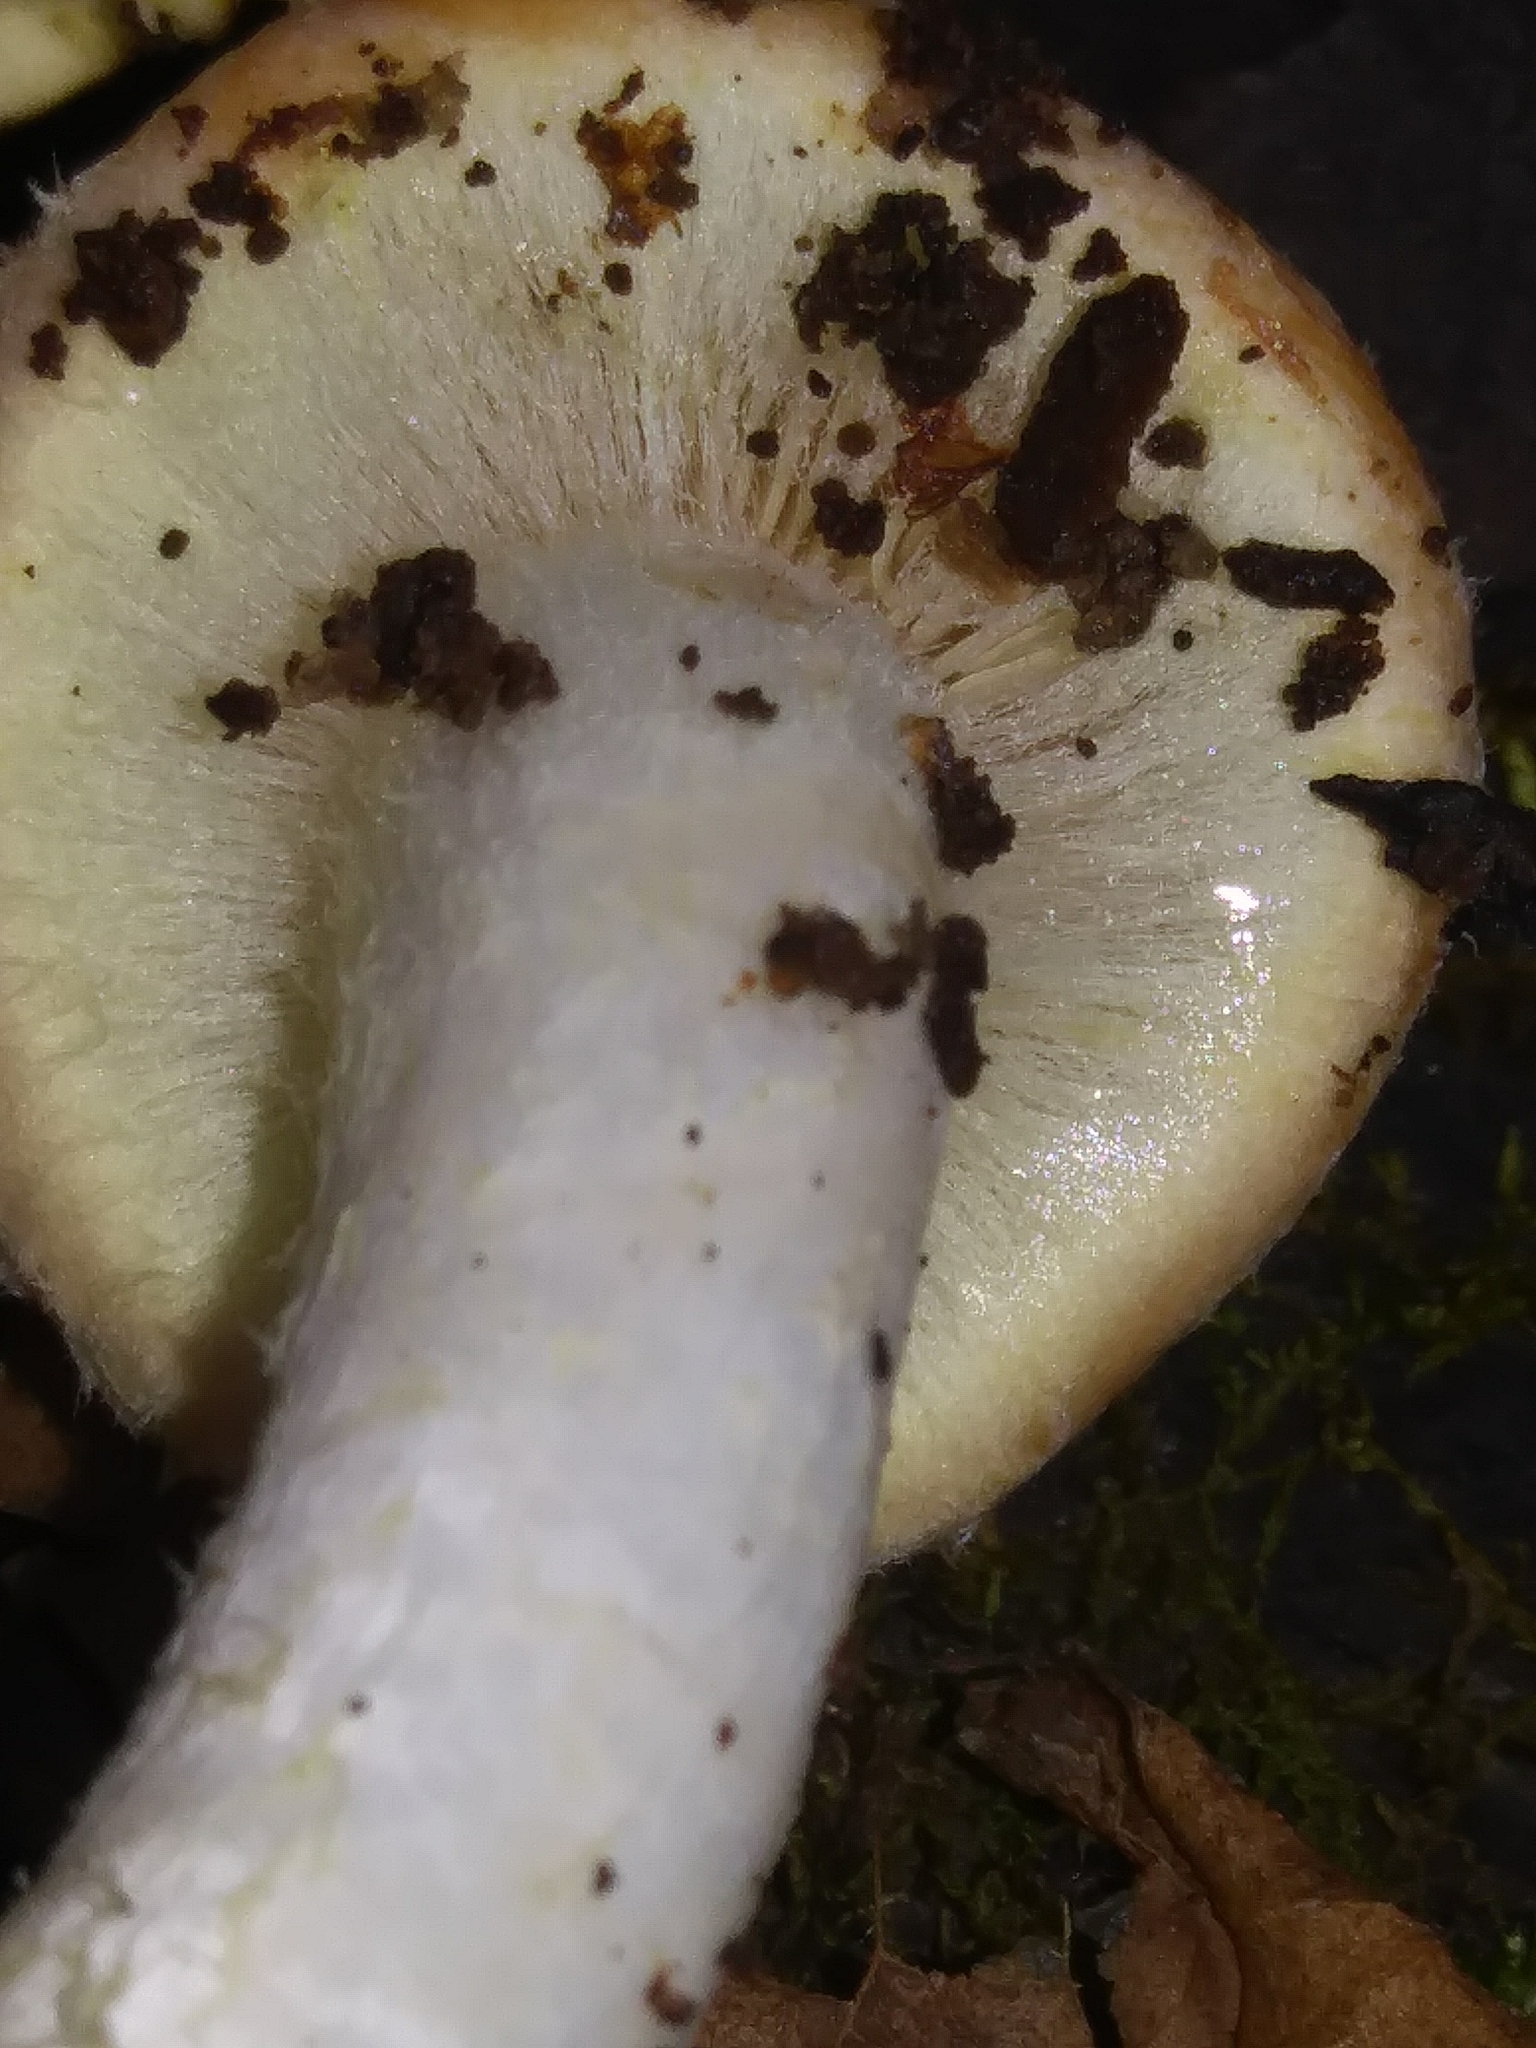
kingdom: Fungi
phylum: Basidiomycota
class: Agaricomycetes
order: Agaricales
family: Strophariaceae
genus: Hypholoma
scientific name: Hypholoma lateritium
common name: Brick caps
